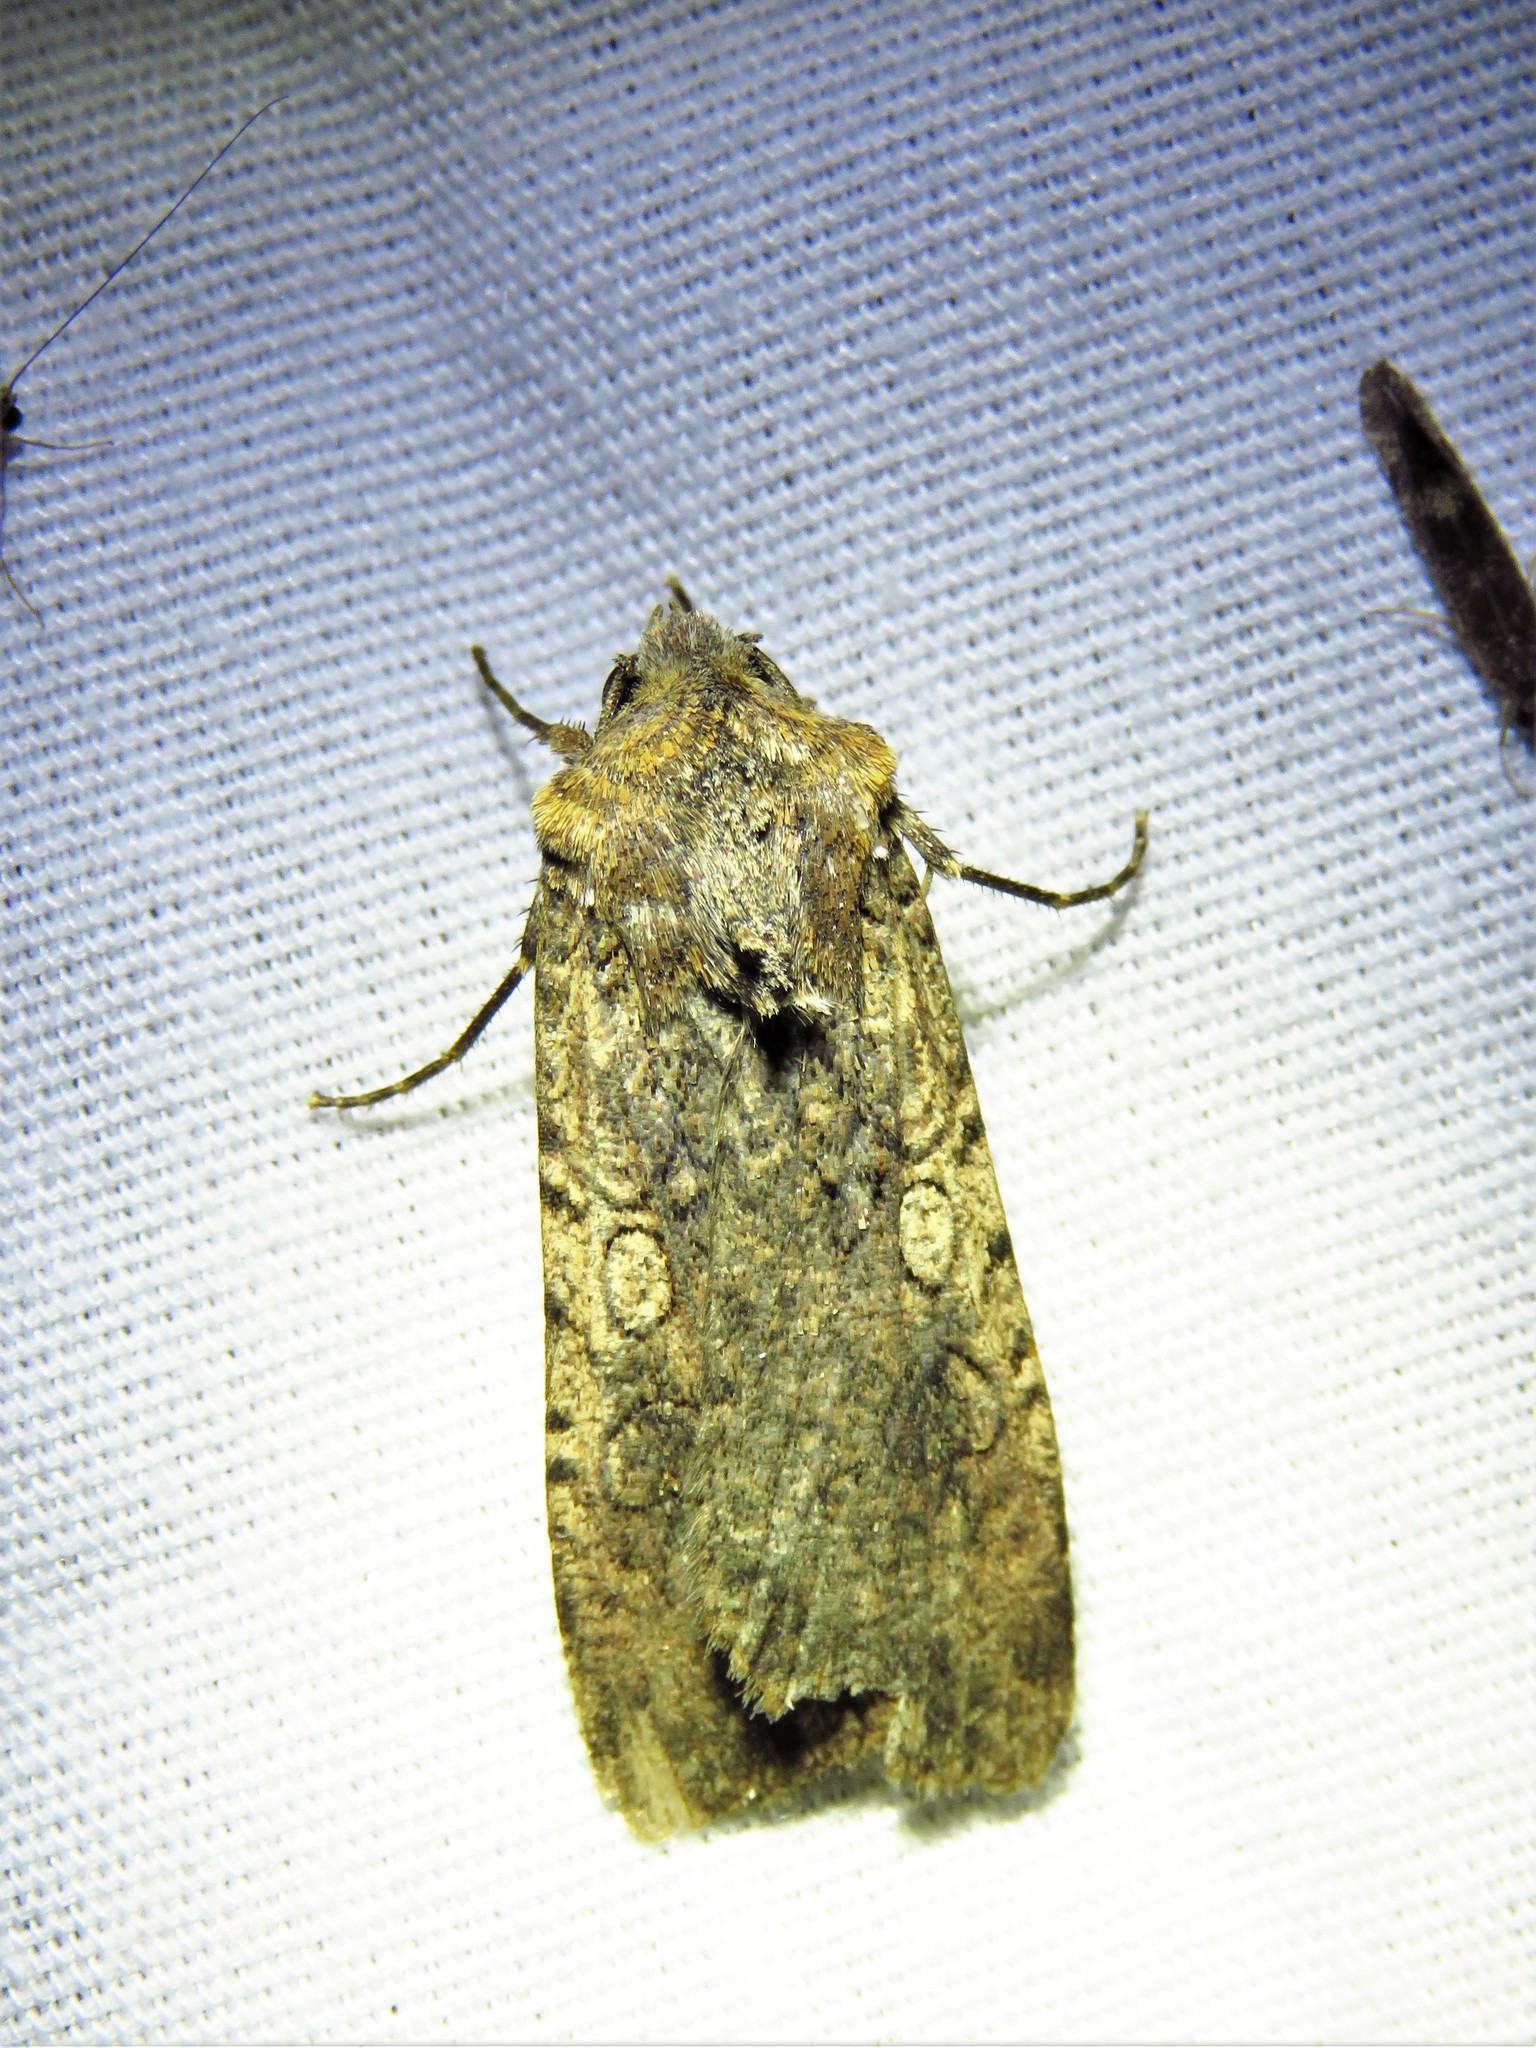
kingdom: Animalia
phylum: Arthropoda
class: Insecta
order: Lepidoptera
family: Noctuidae
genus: Peridroma
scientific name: Peridroma saucia
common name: Pearly underwing
